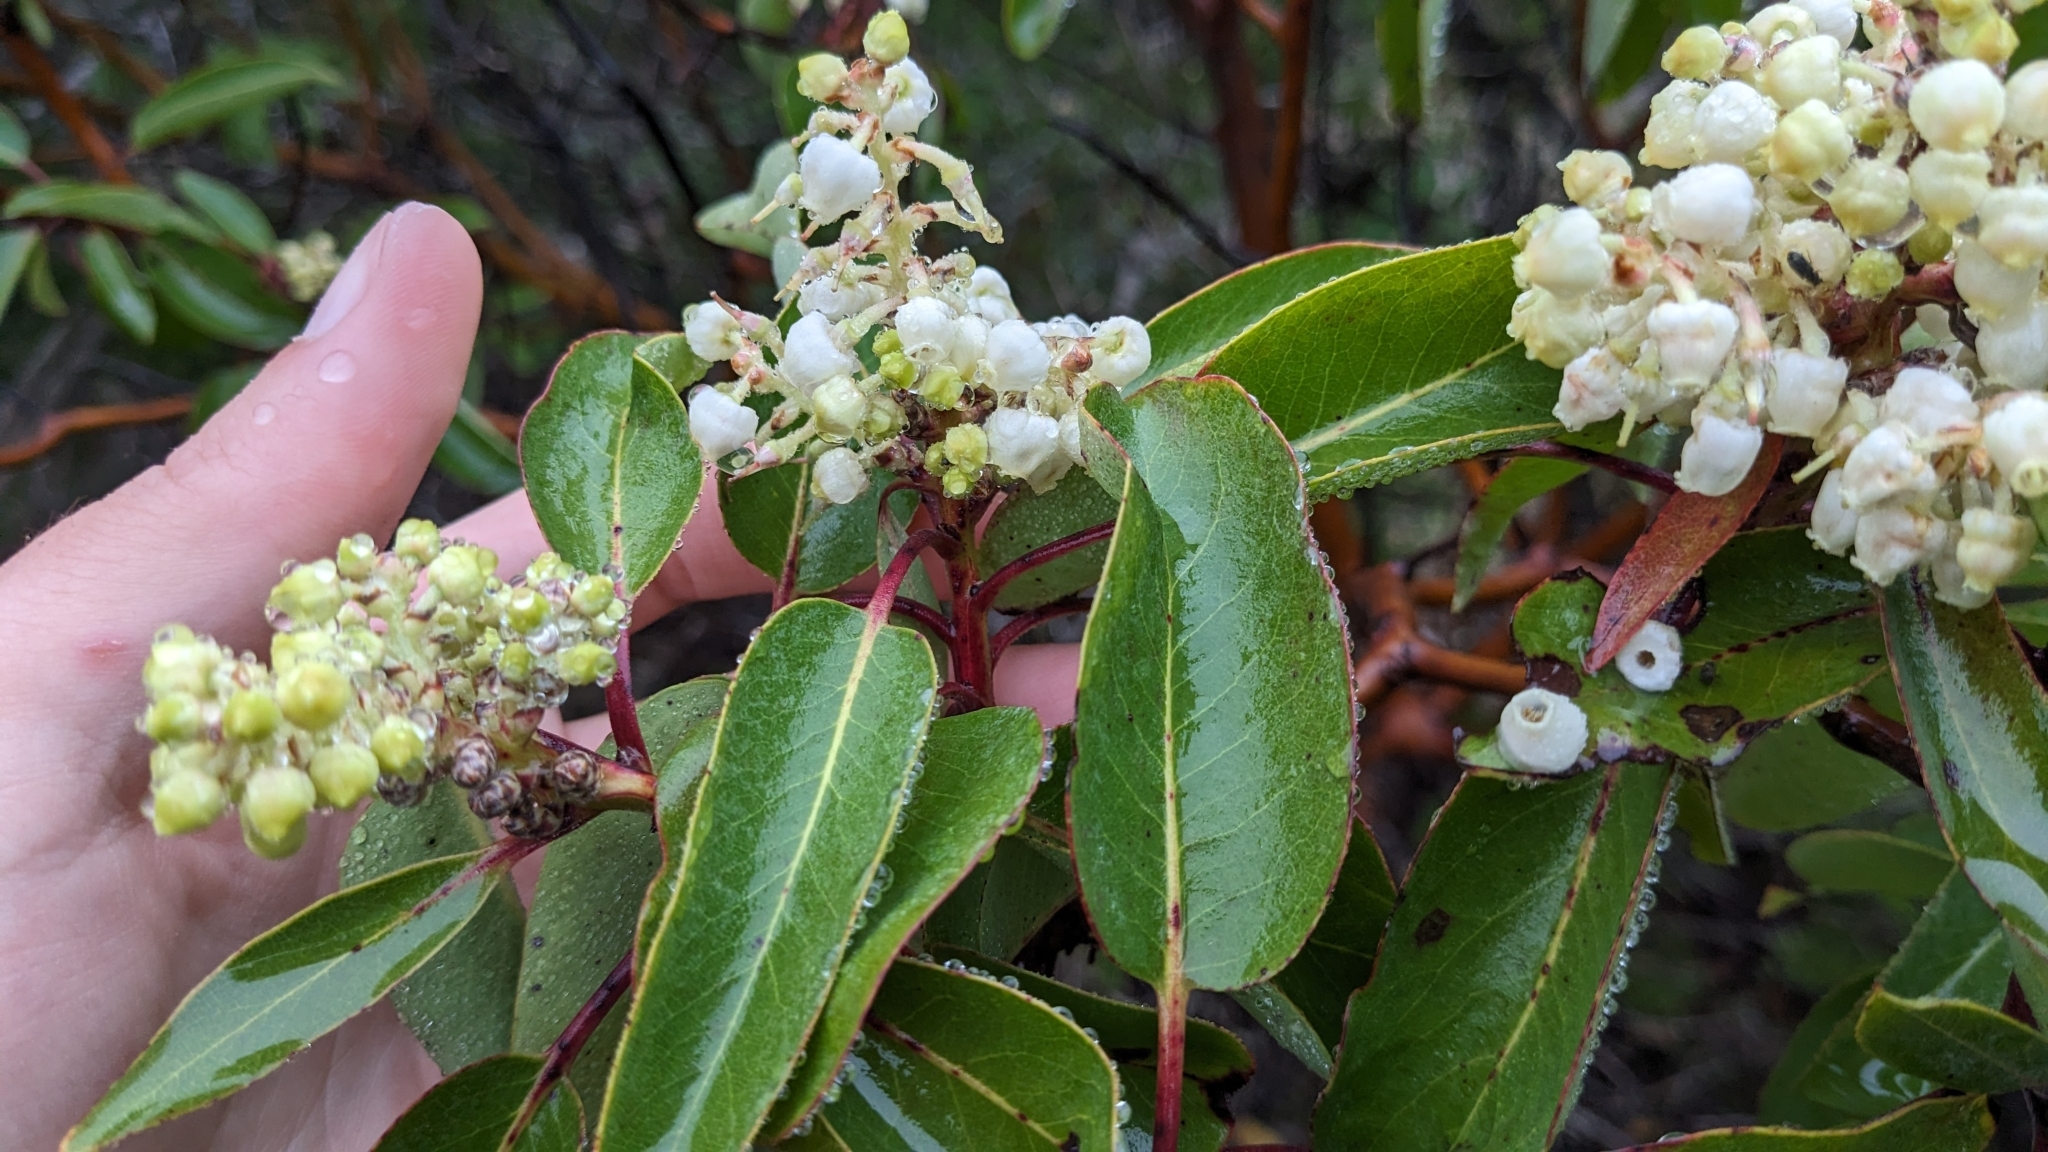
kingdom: Plantae
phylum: Tracheophyta
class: Magnoliopsida
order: Ericales
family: Ericaceae
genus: Arbutus
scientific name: Arbutus xalapensis
